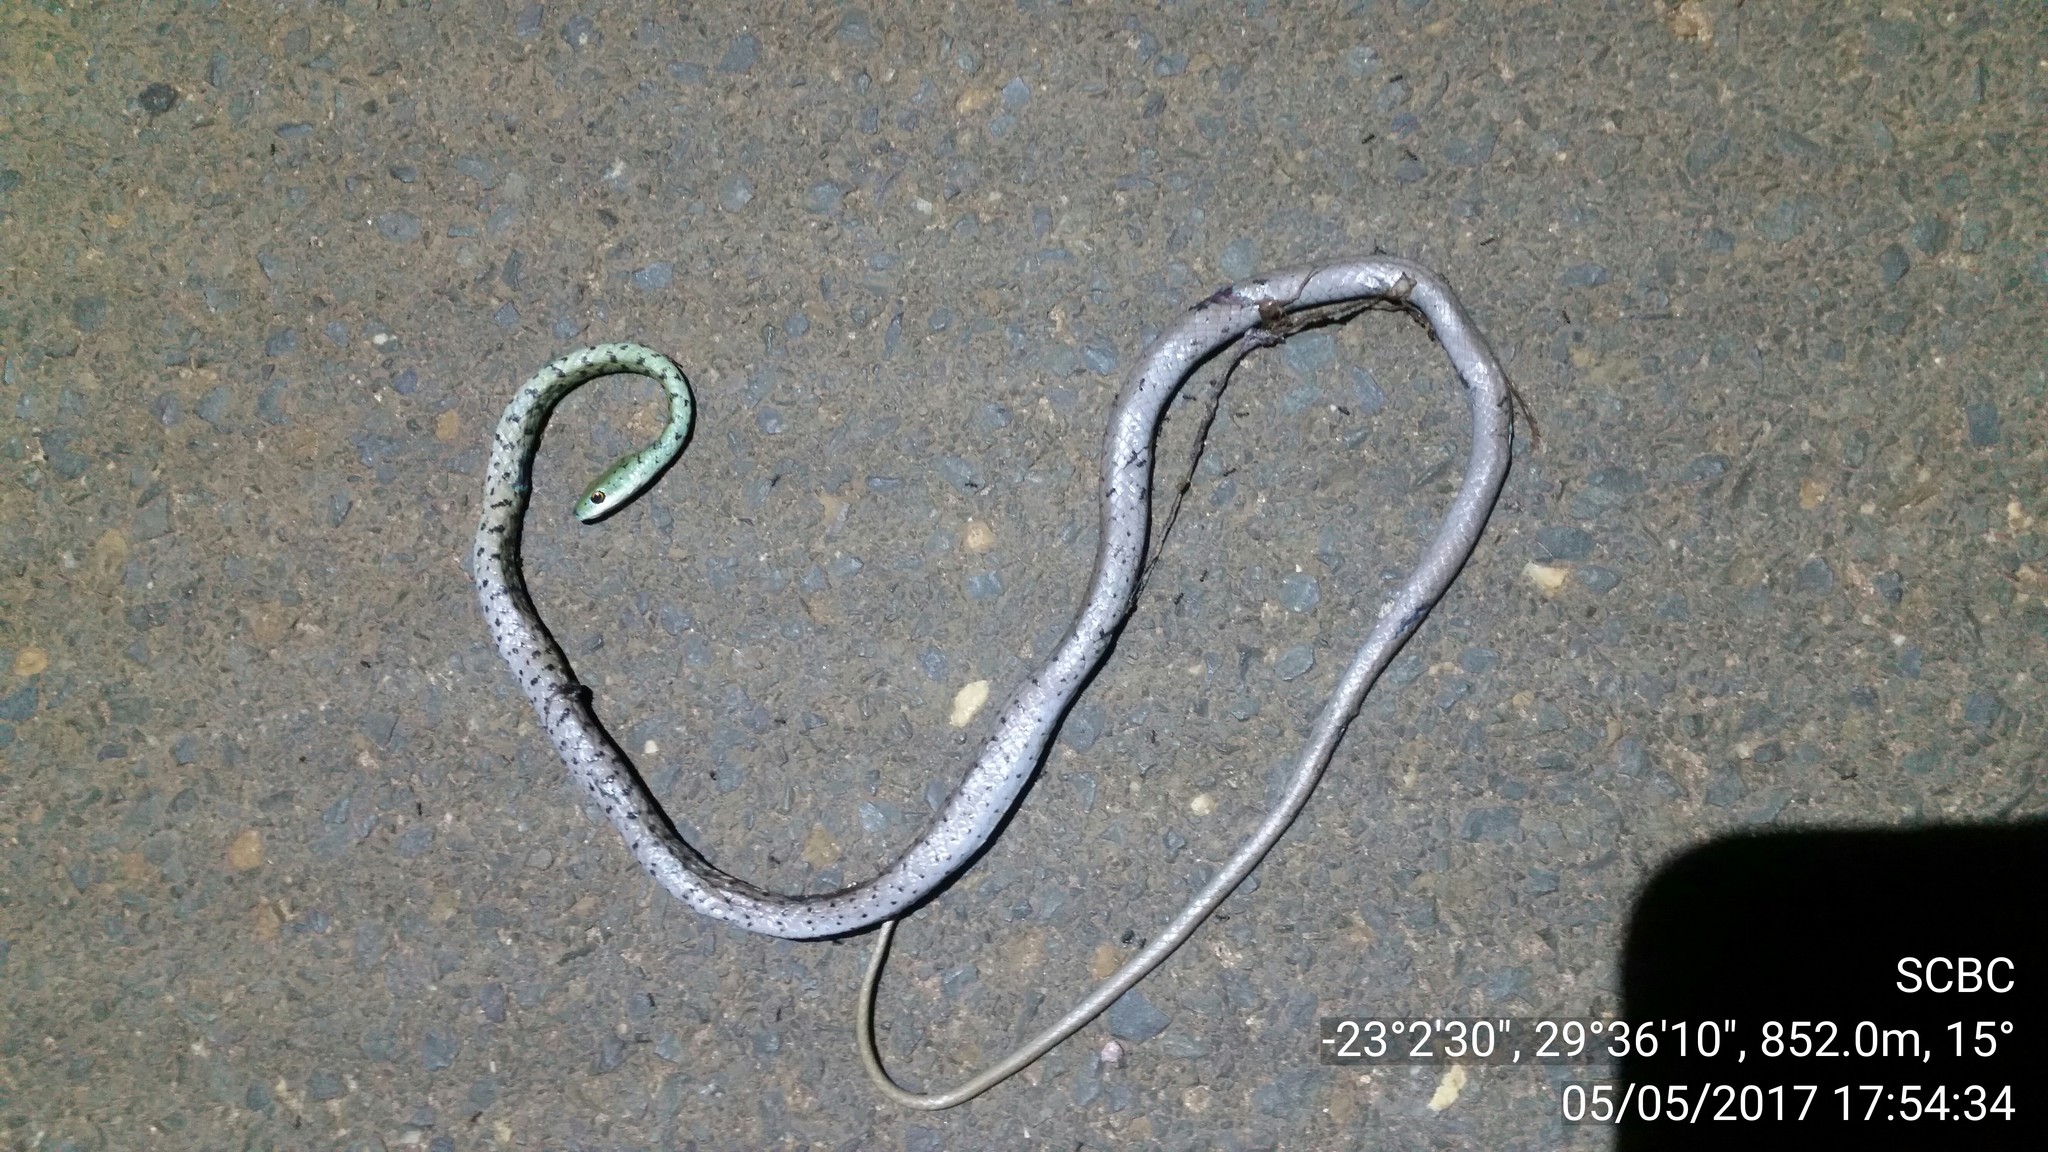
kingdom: Animalia
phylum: Chordata
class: Squamata
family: Colubridae
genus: Philothamnus
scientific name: Philothamnus semivariegatus
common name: Spotted bush snake
